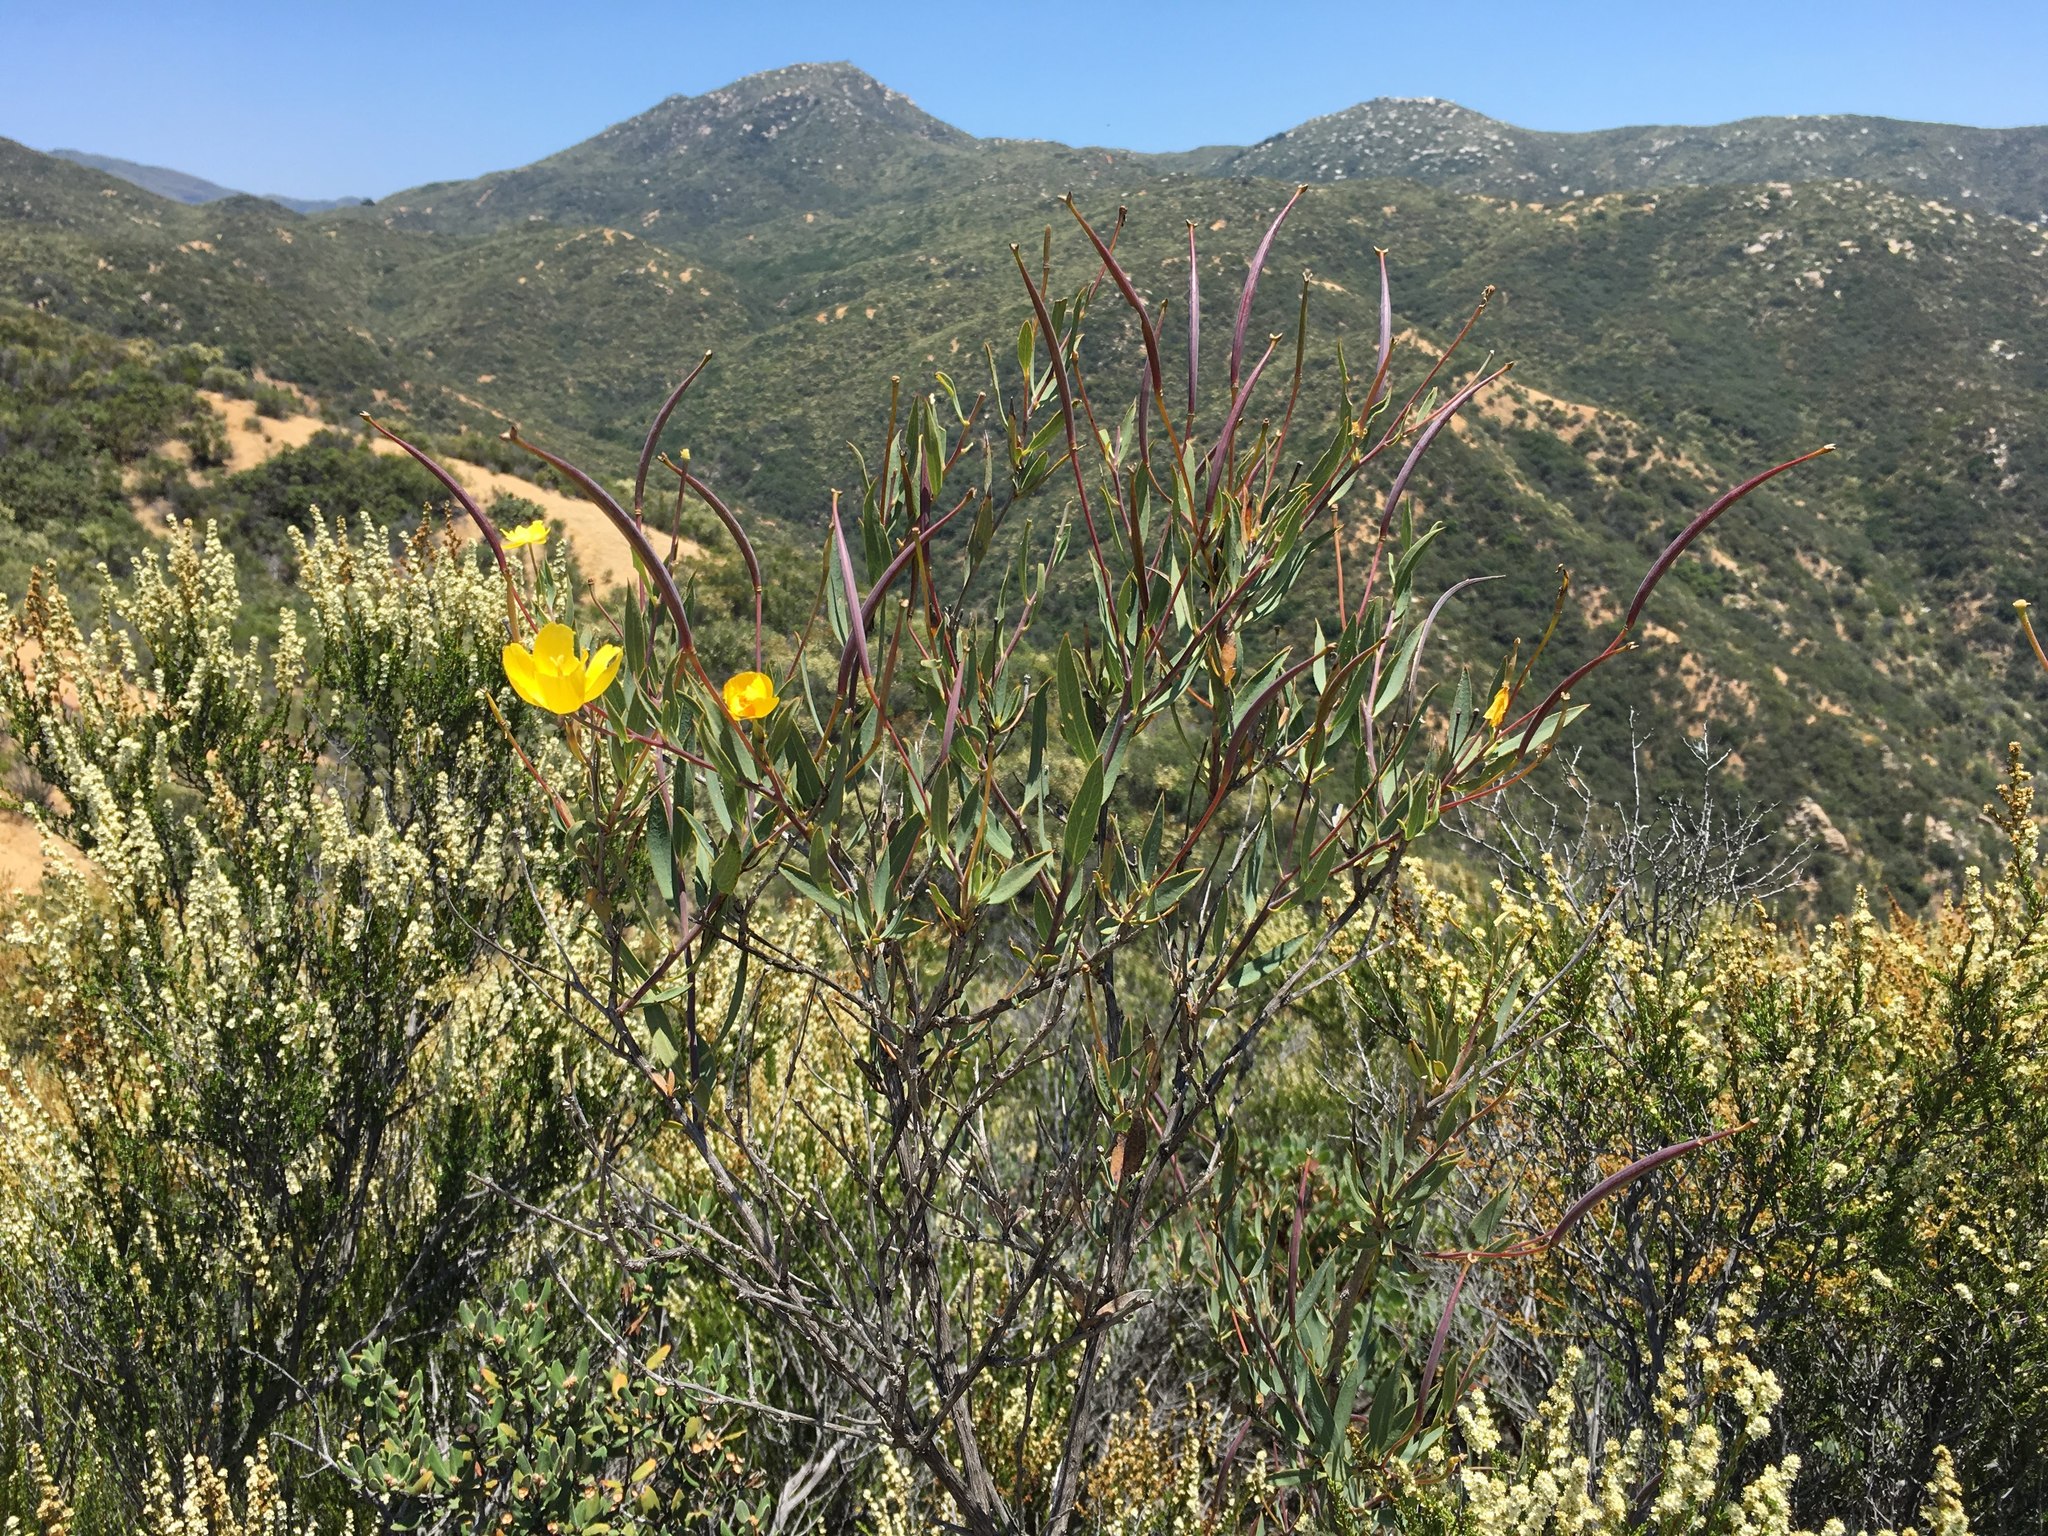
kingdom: Plantae
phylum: Tracheophyta
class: Magnoliopsida
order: Ranunculales
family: Papaveraceae
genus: Dendromecon
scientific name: Dendromecon rigida
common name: Tree poppy
